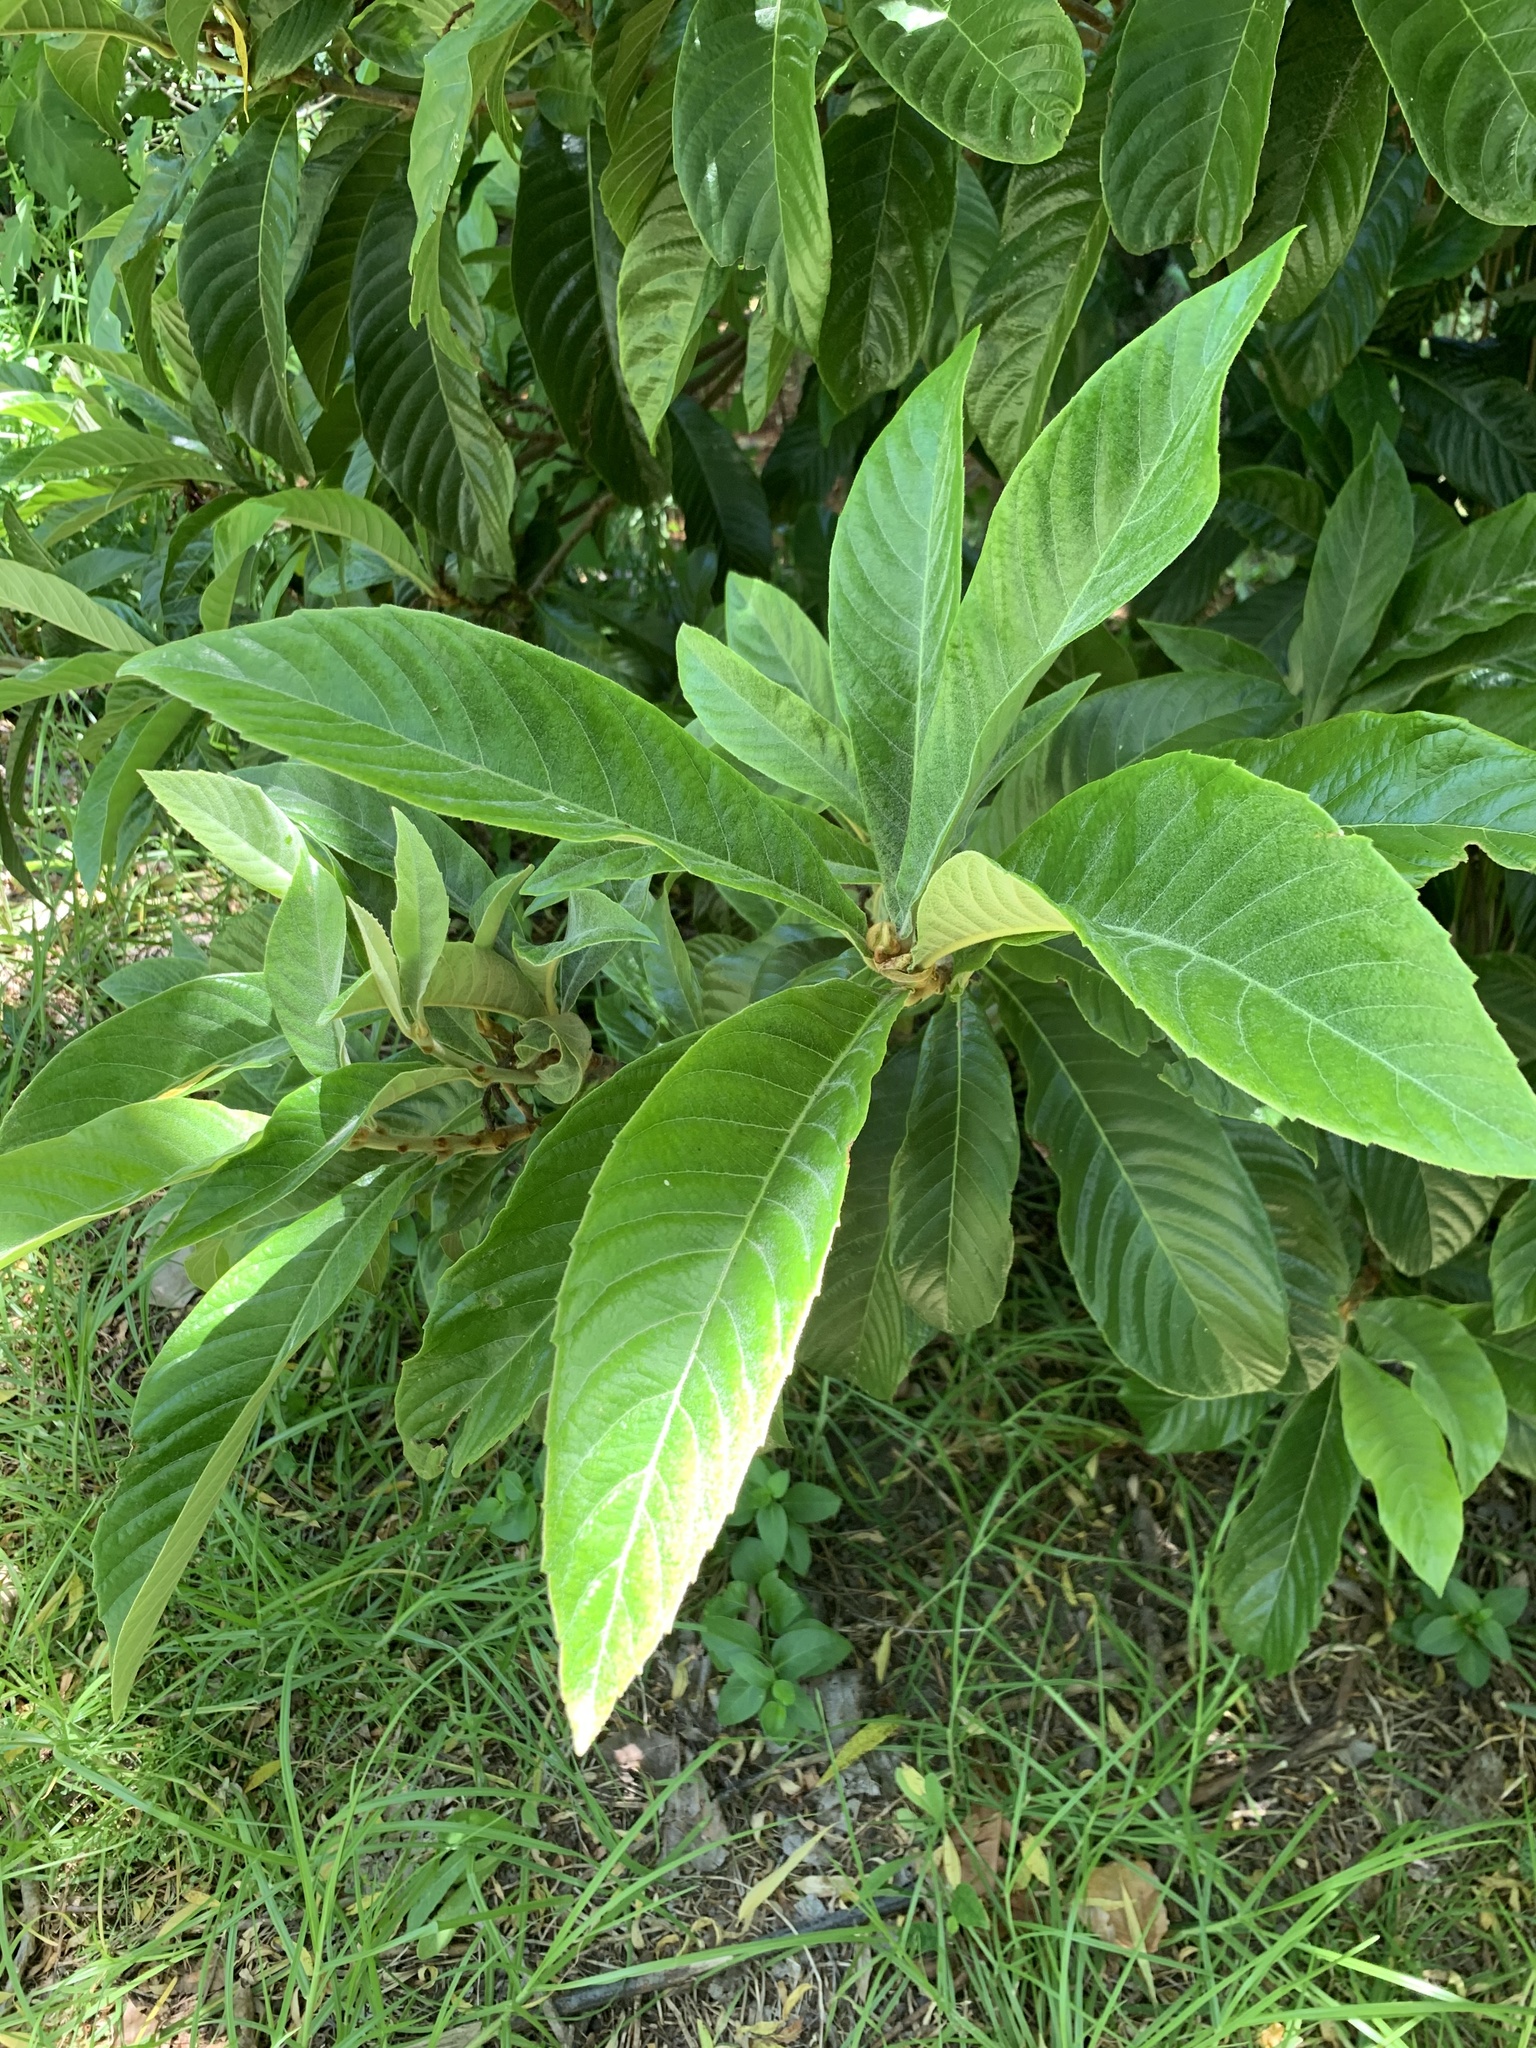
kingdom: Plantae
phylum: Tracheophyta
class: Magnoliopsida
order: Rosales
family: Rosaceae
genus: Rhaphiolepis
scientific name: Rhaphiolepis bibas
